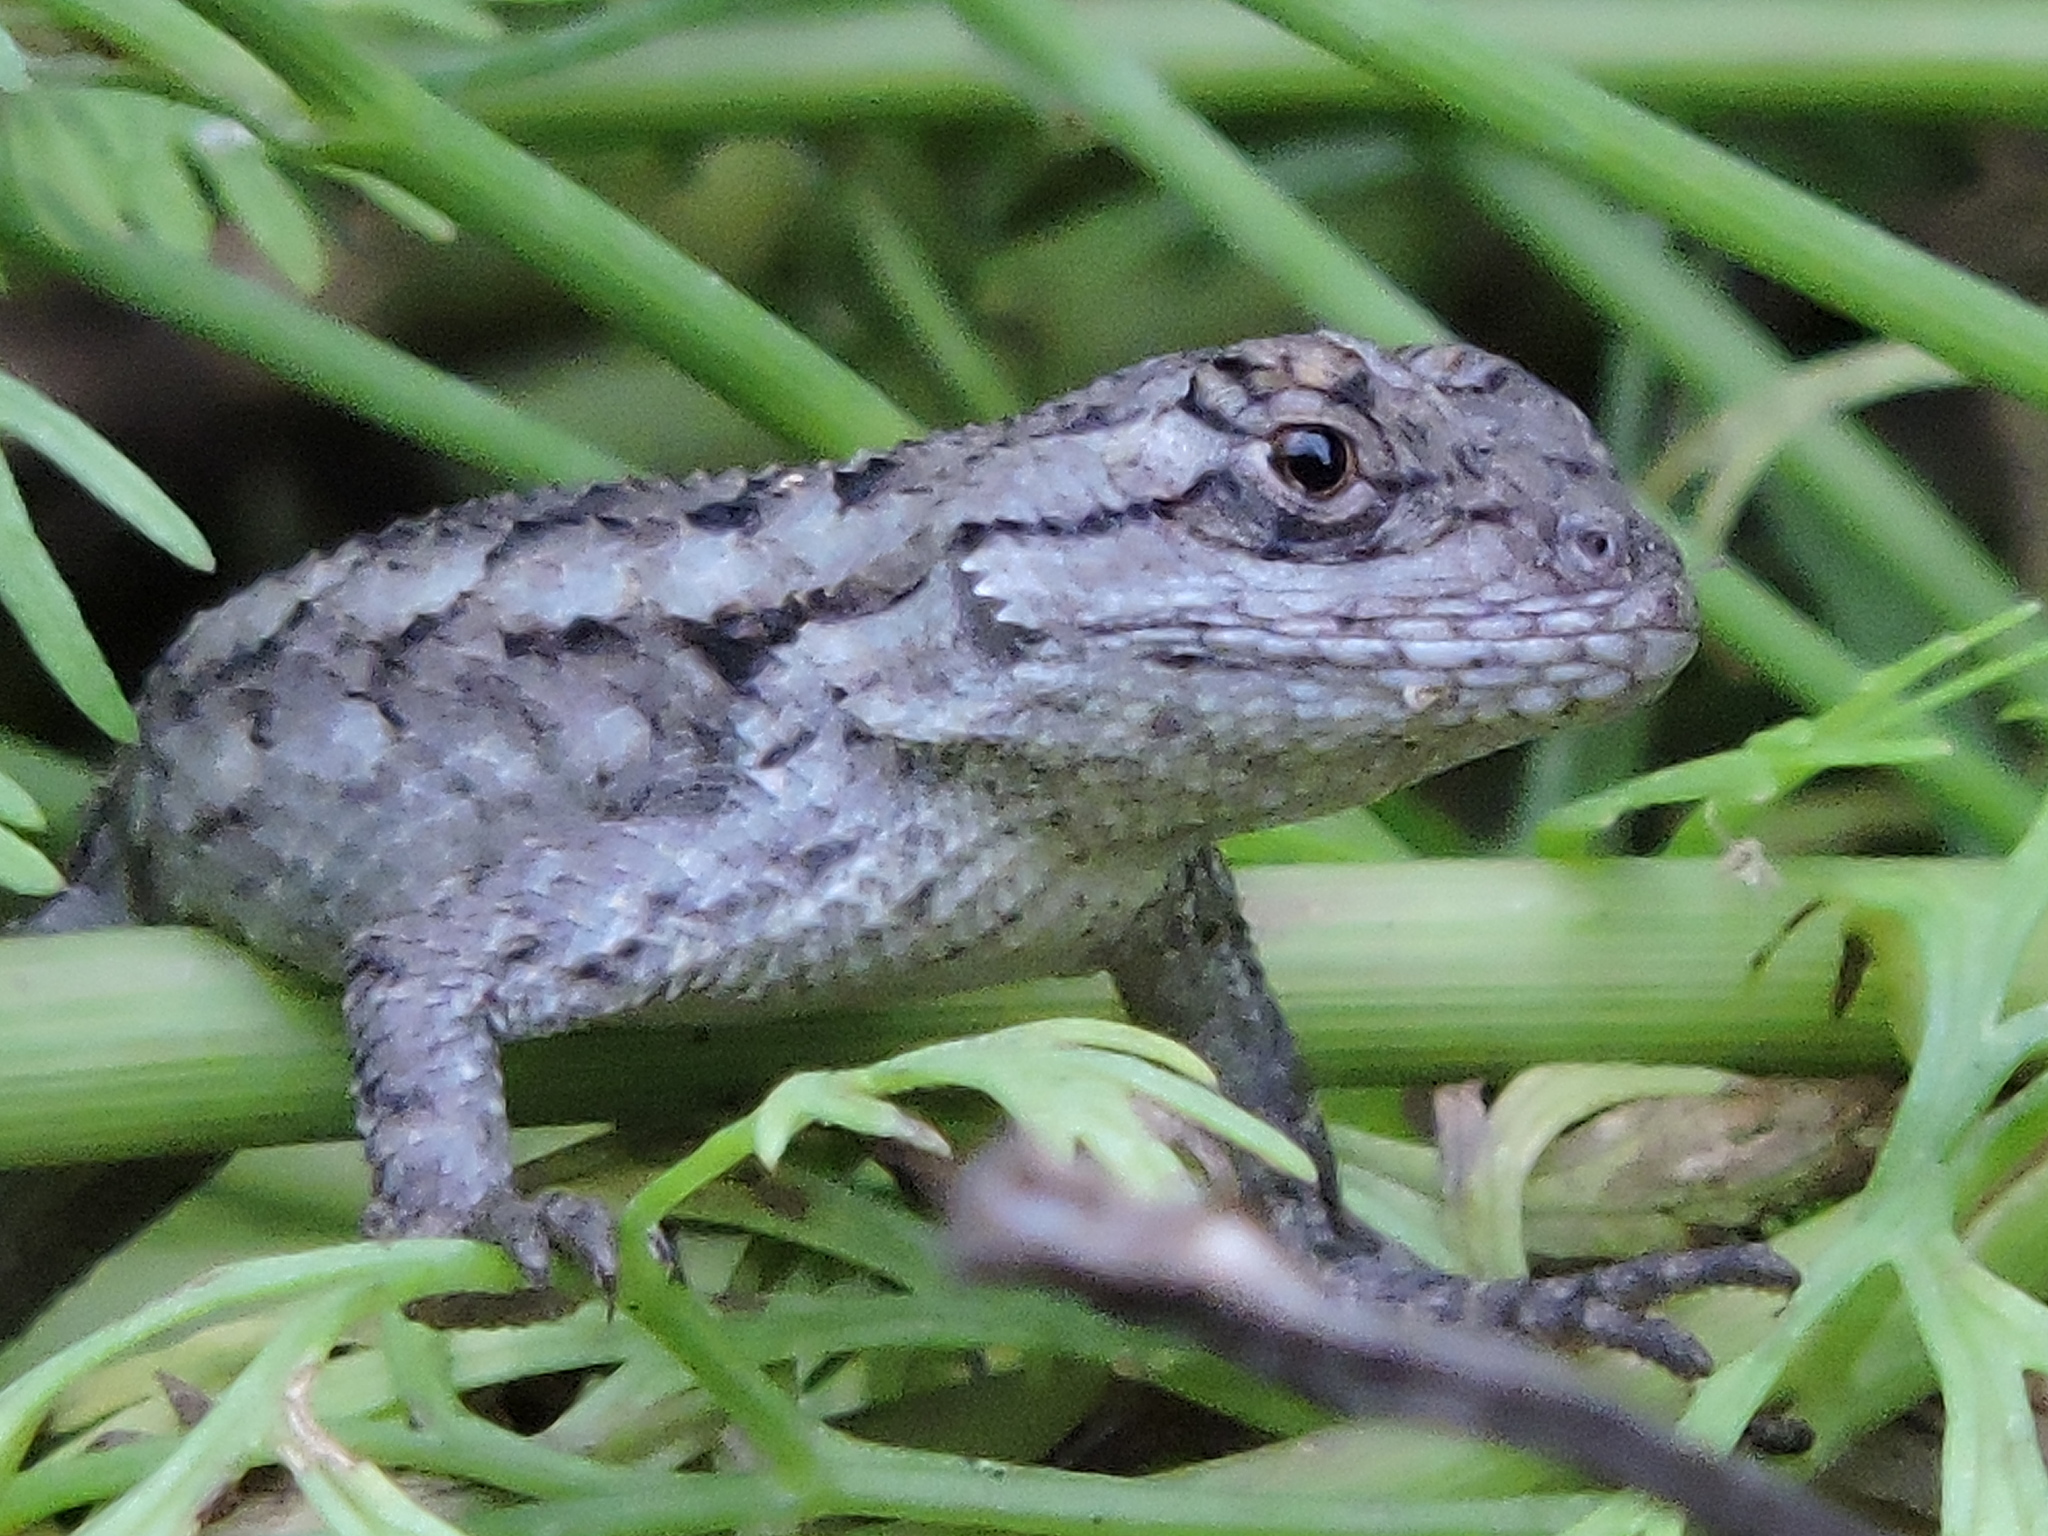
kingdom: Animalia
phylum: Chordata
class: Squamata
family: Phrynosomatidae
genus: Sceloporus
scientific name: Sceloporus olivaceus
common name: Texas spiny lizard
